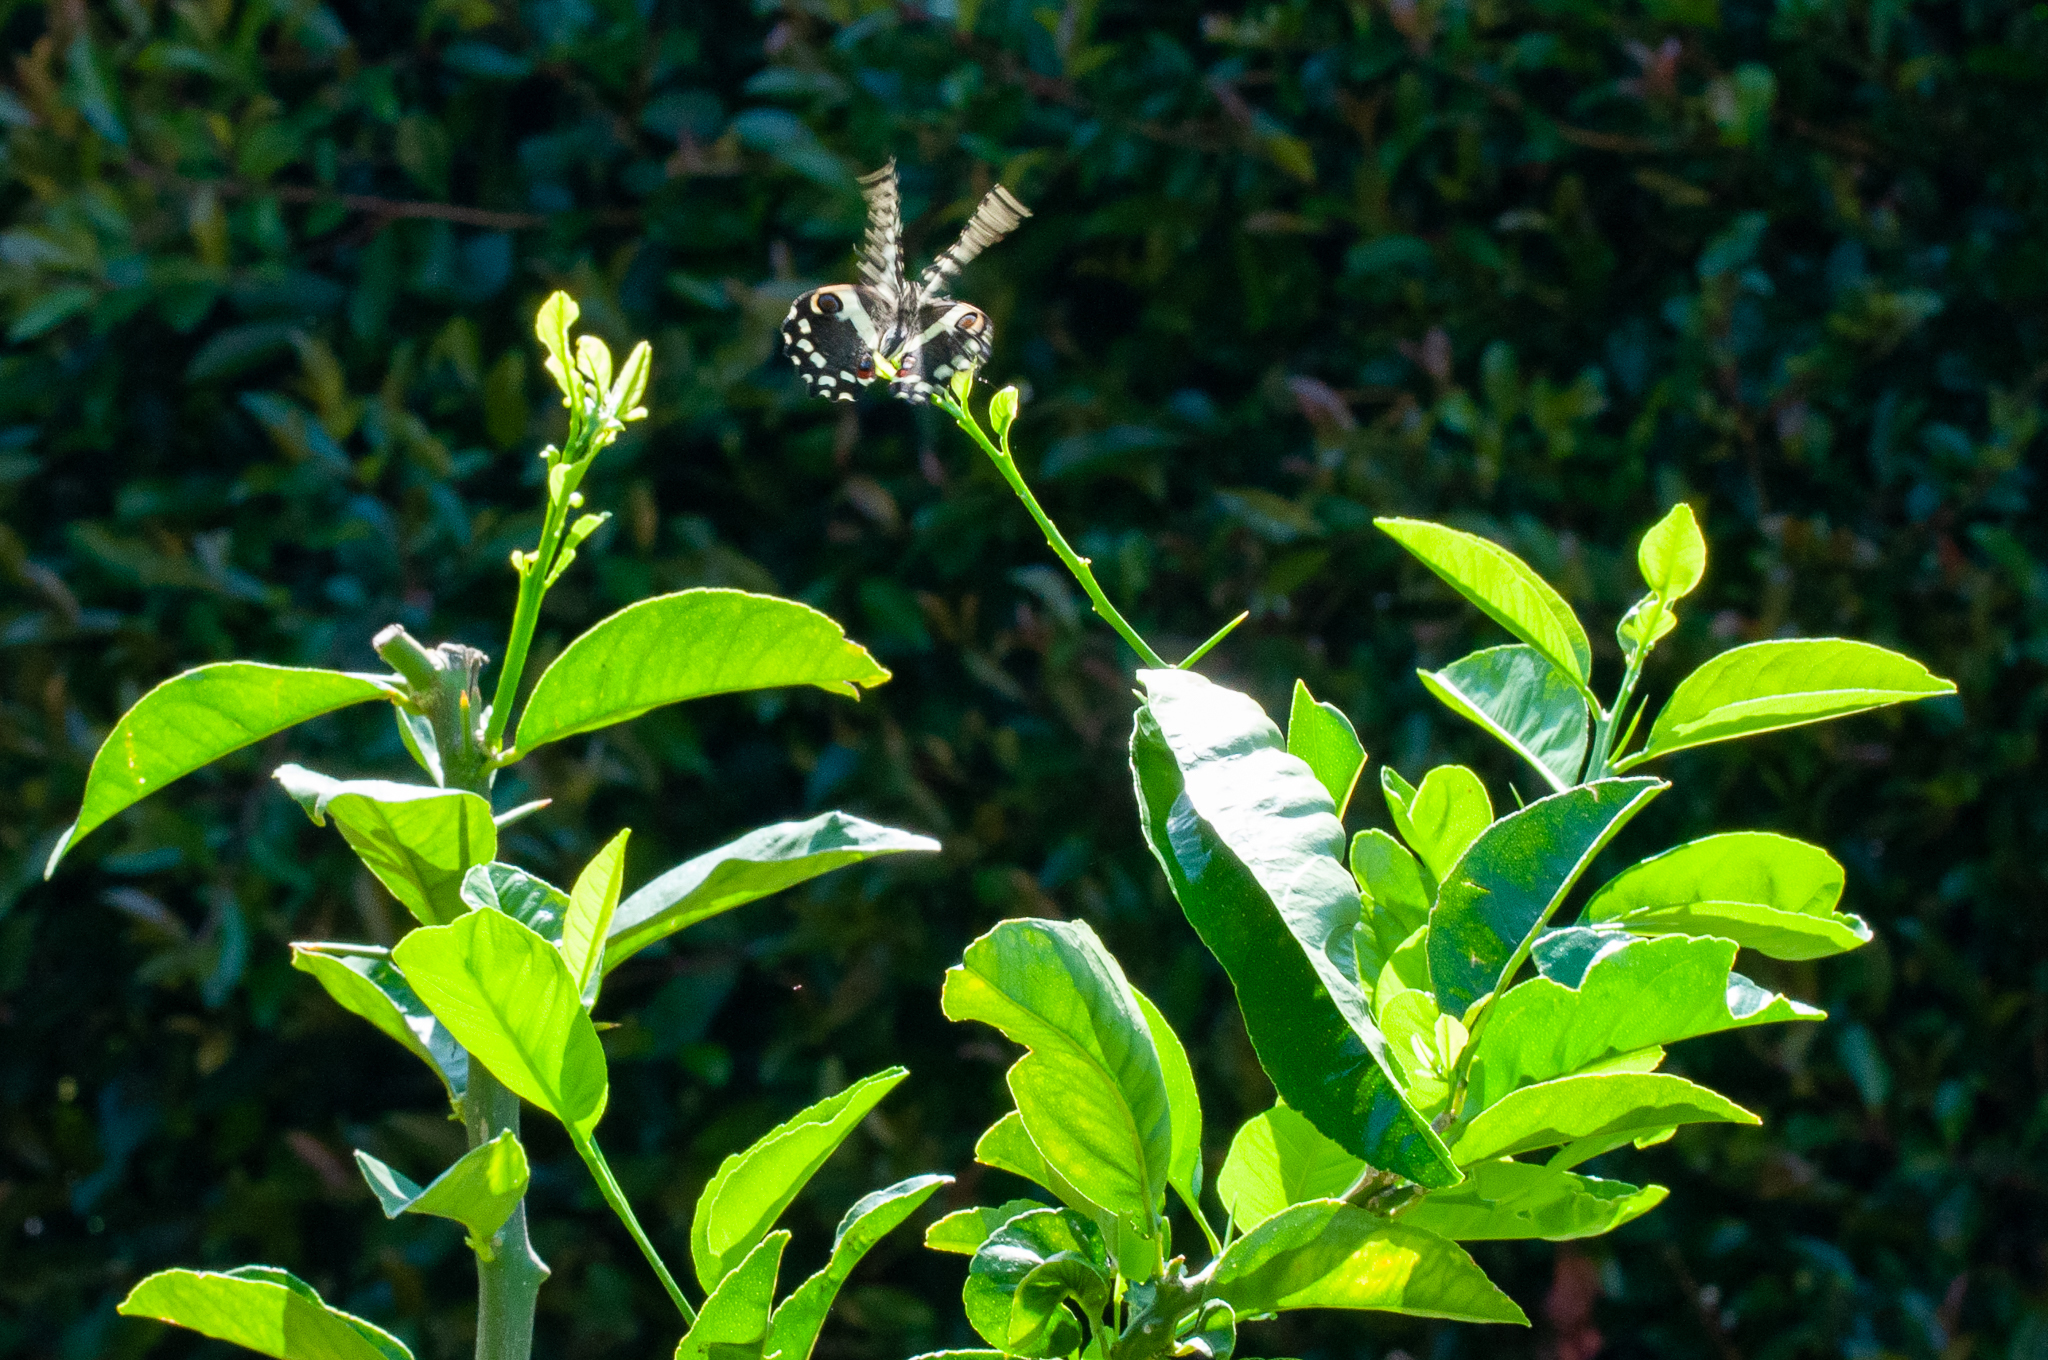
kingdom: Animalia
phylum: Arthropoda
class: Insecta
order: Lepidoptera
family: Papilionidae
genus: Papilio
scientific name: Papilio demodocus
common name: Christmas butterfly
